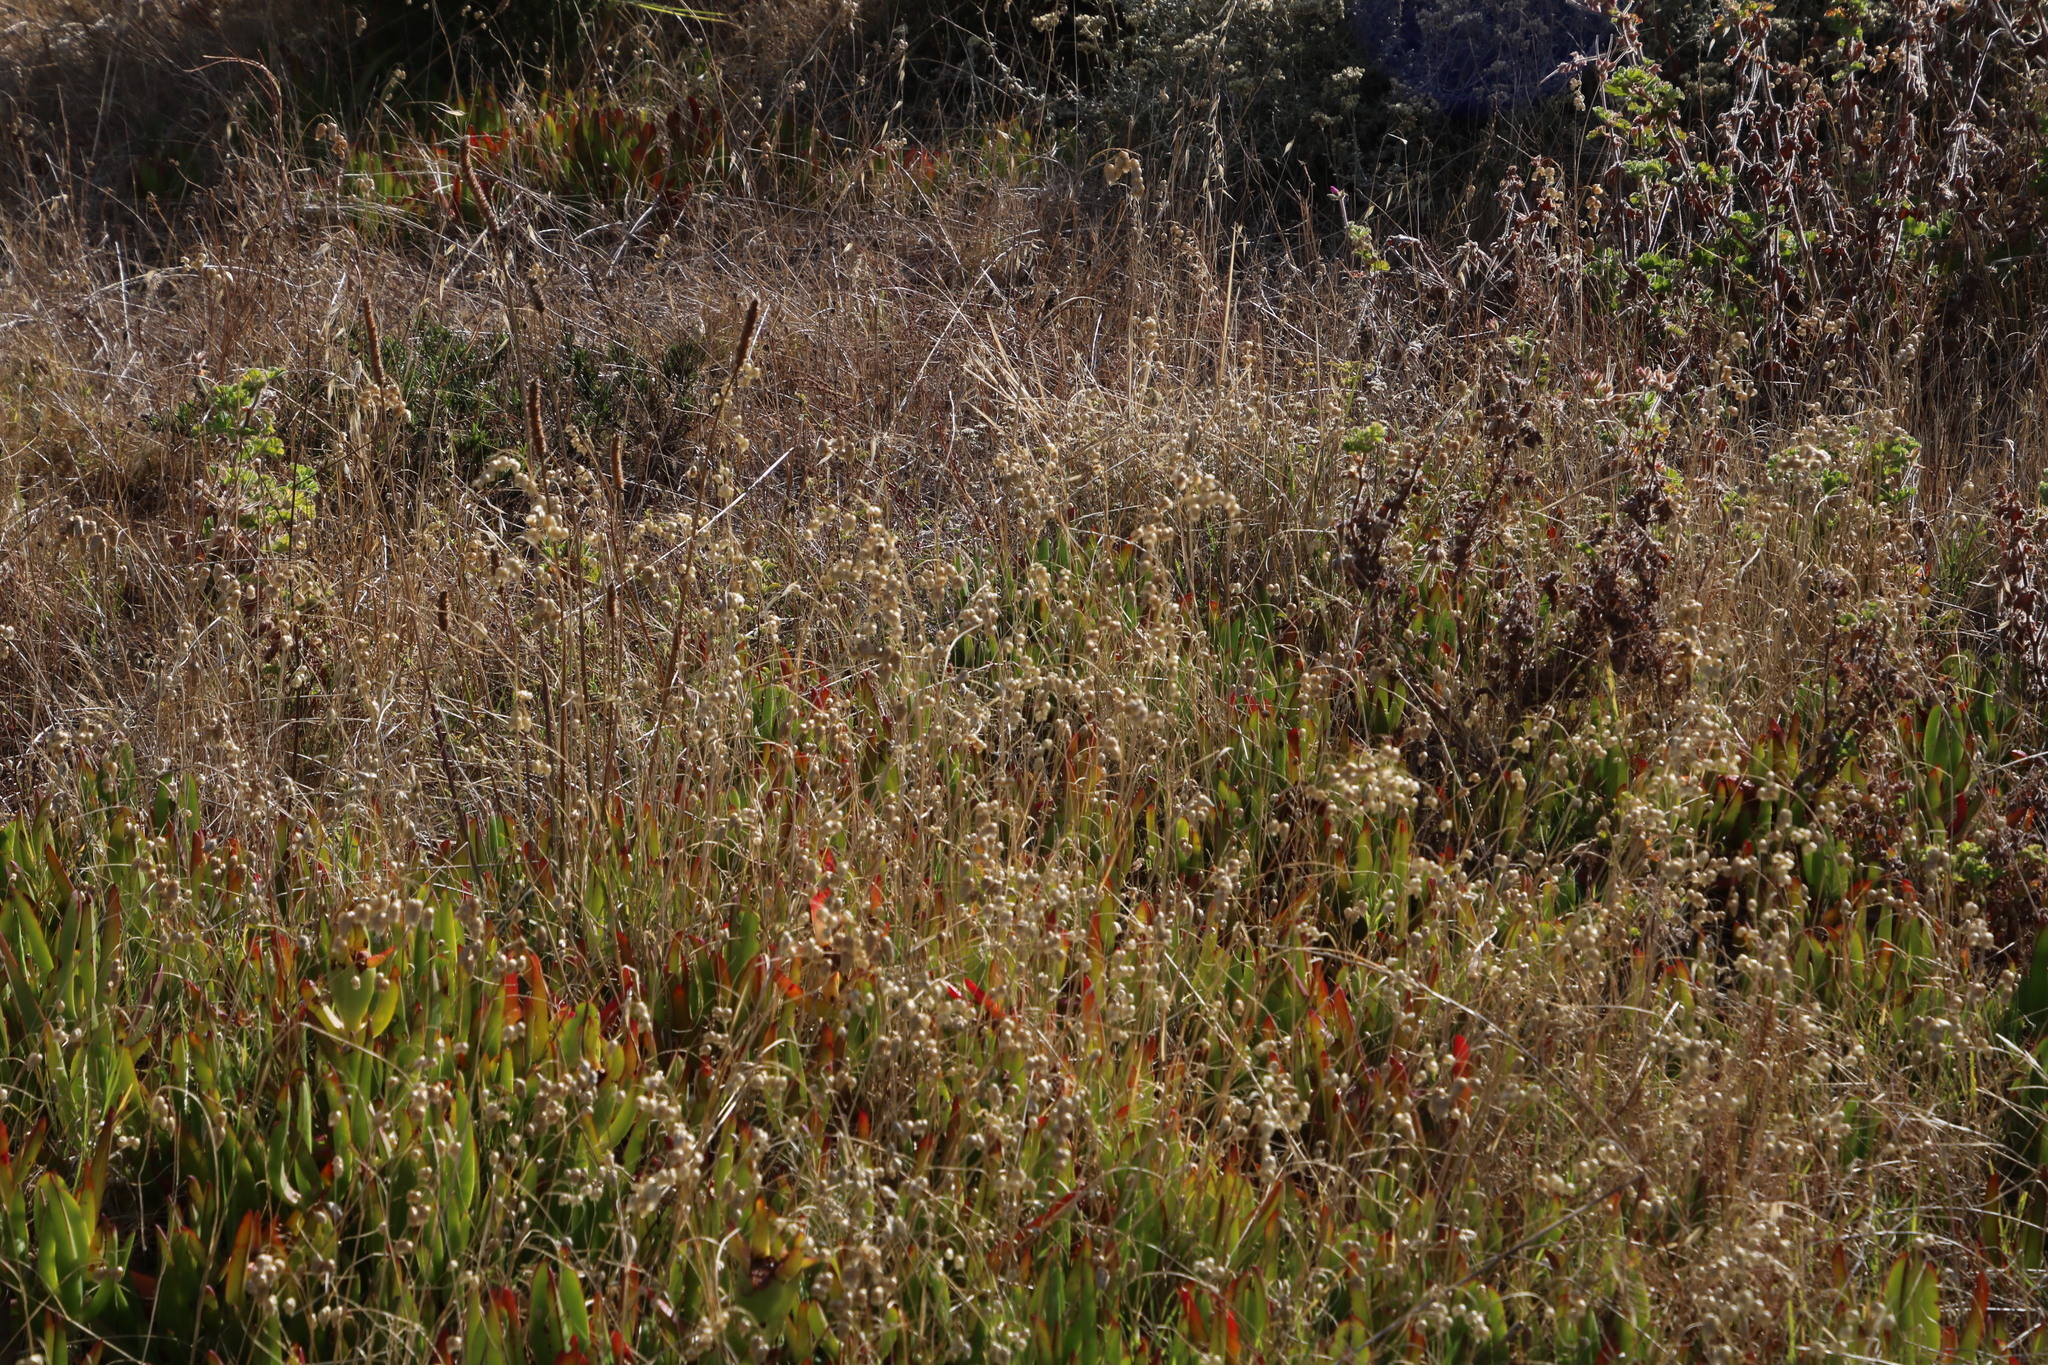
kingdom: Plantae
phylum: Tracheophyta
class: Liliopsida
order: Poales
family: Poaceae
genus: Briza
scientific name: Briza maxima
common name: Big quakinggrass
